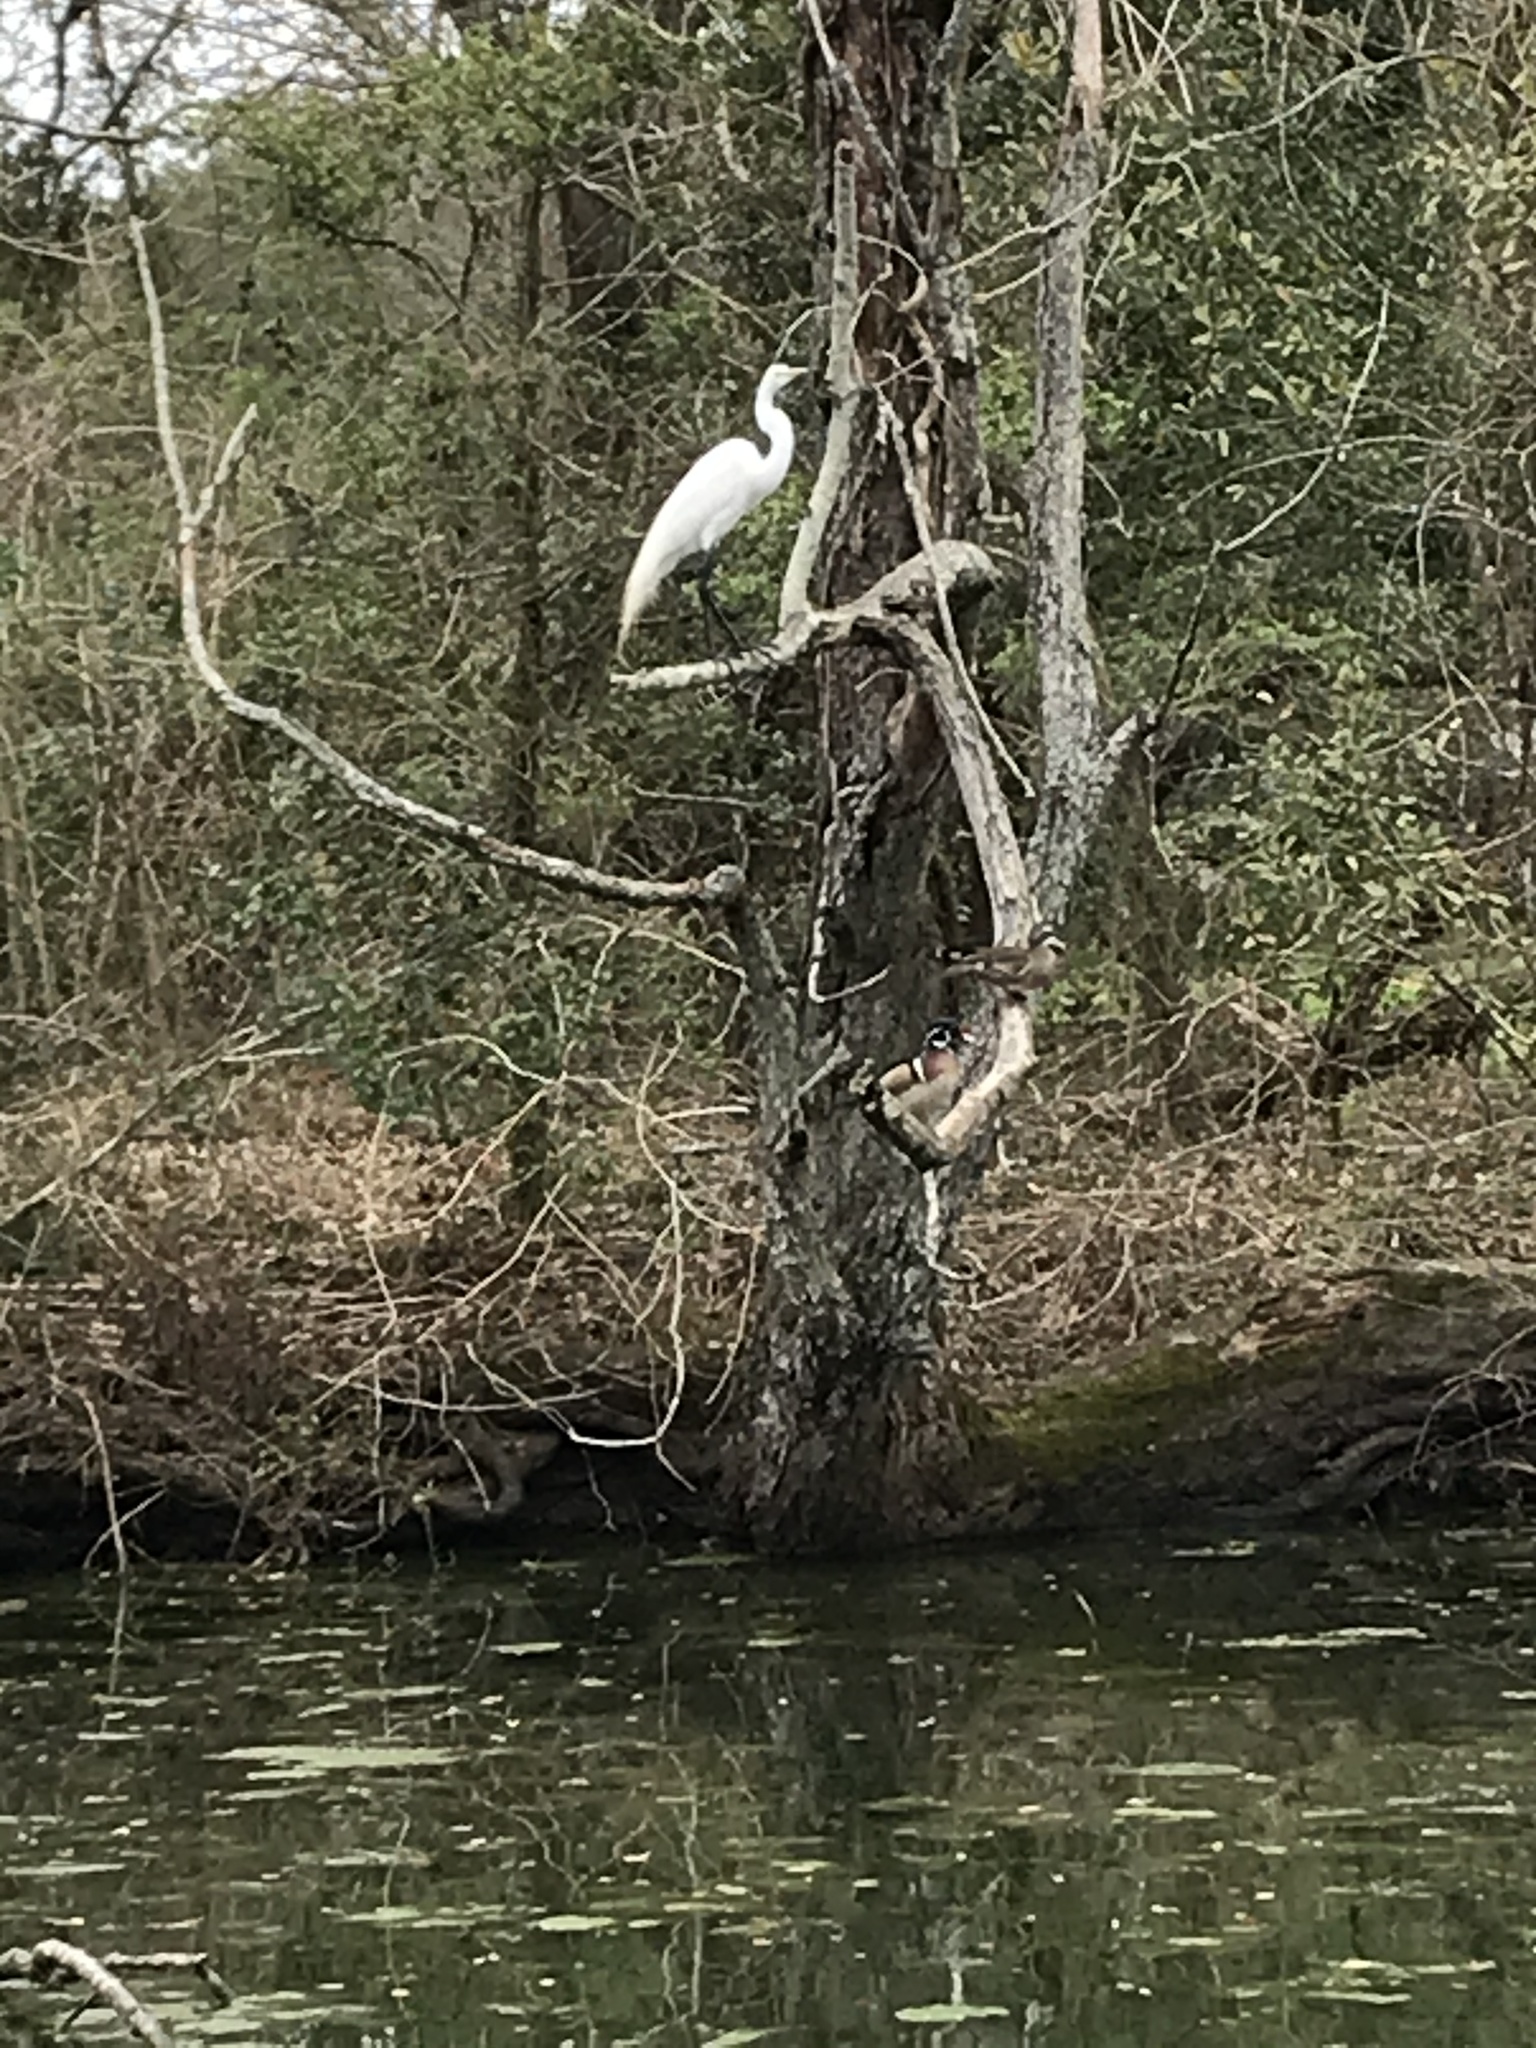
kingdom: Animalia
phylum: Chordata
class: Aves
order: Pelecaniformes
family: Ardeidae
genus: Ardea
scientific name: Ardea alba
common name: Great egret
